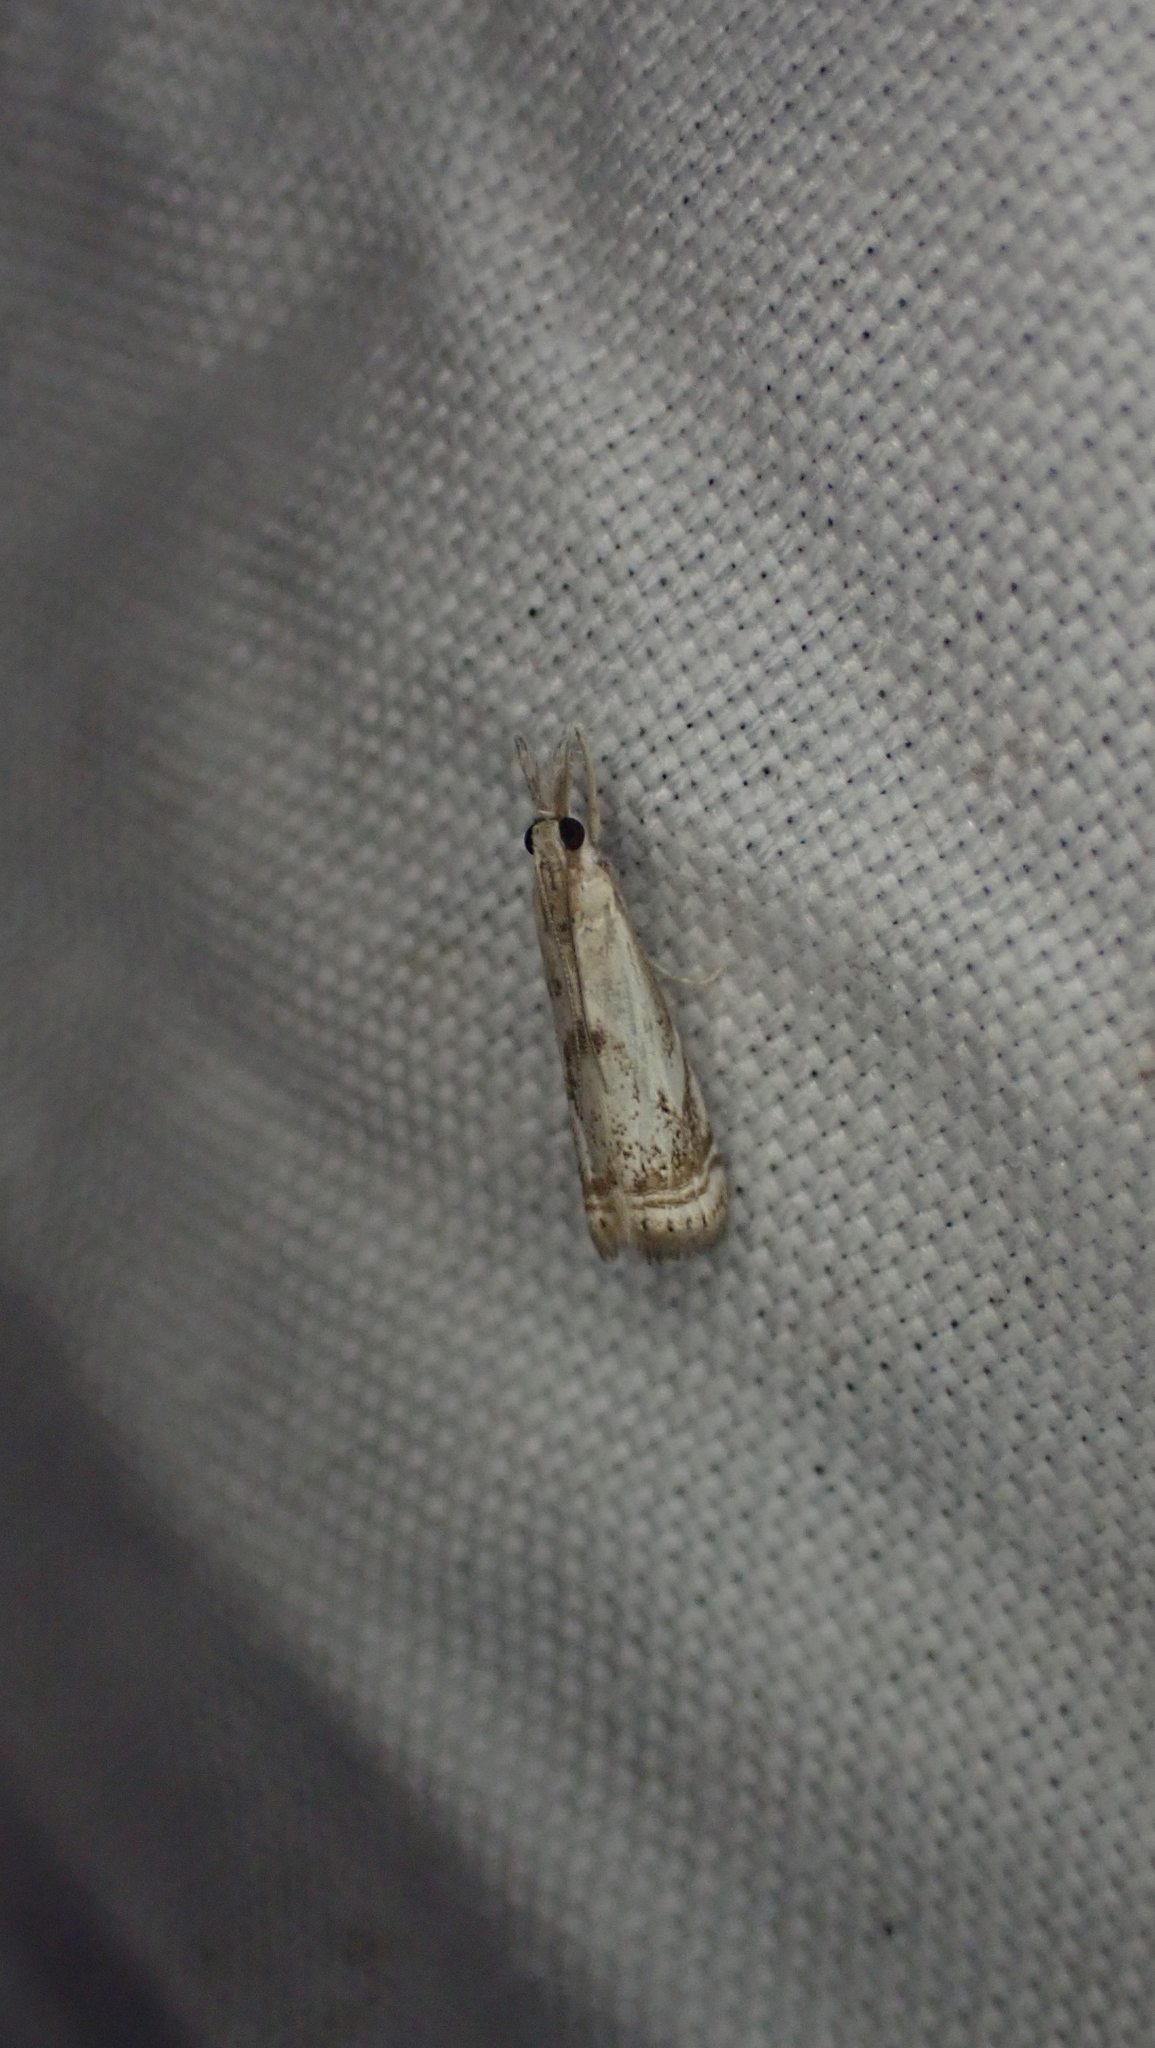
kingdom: Animalia
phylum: Arthropoda
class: Insecta
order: Lepidoptera
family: Crambidae
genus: Microcrambus
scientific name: Microcrambus elegans
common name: Elegant grass-veneer
